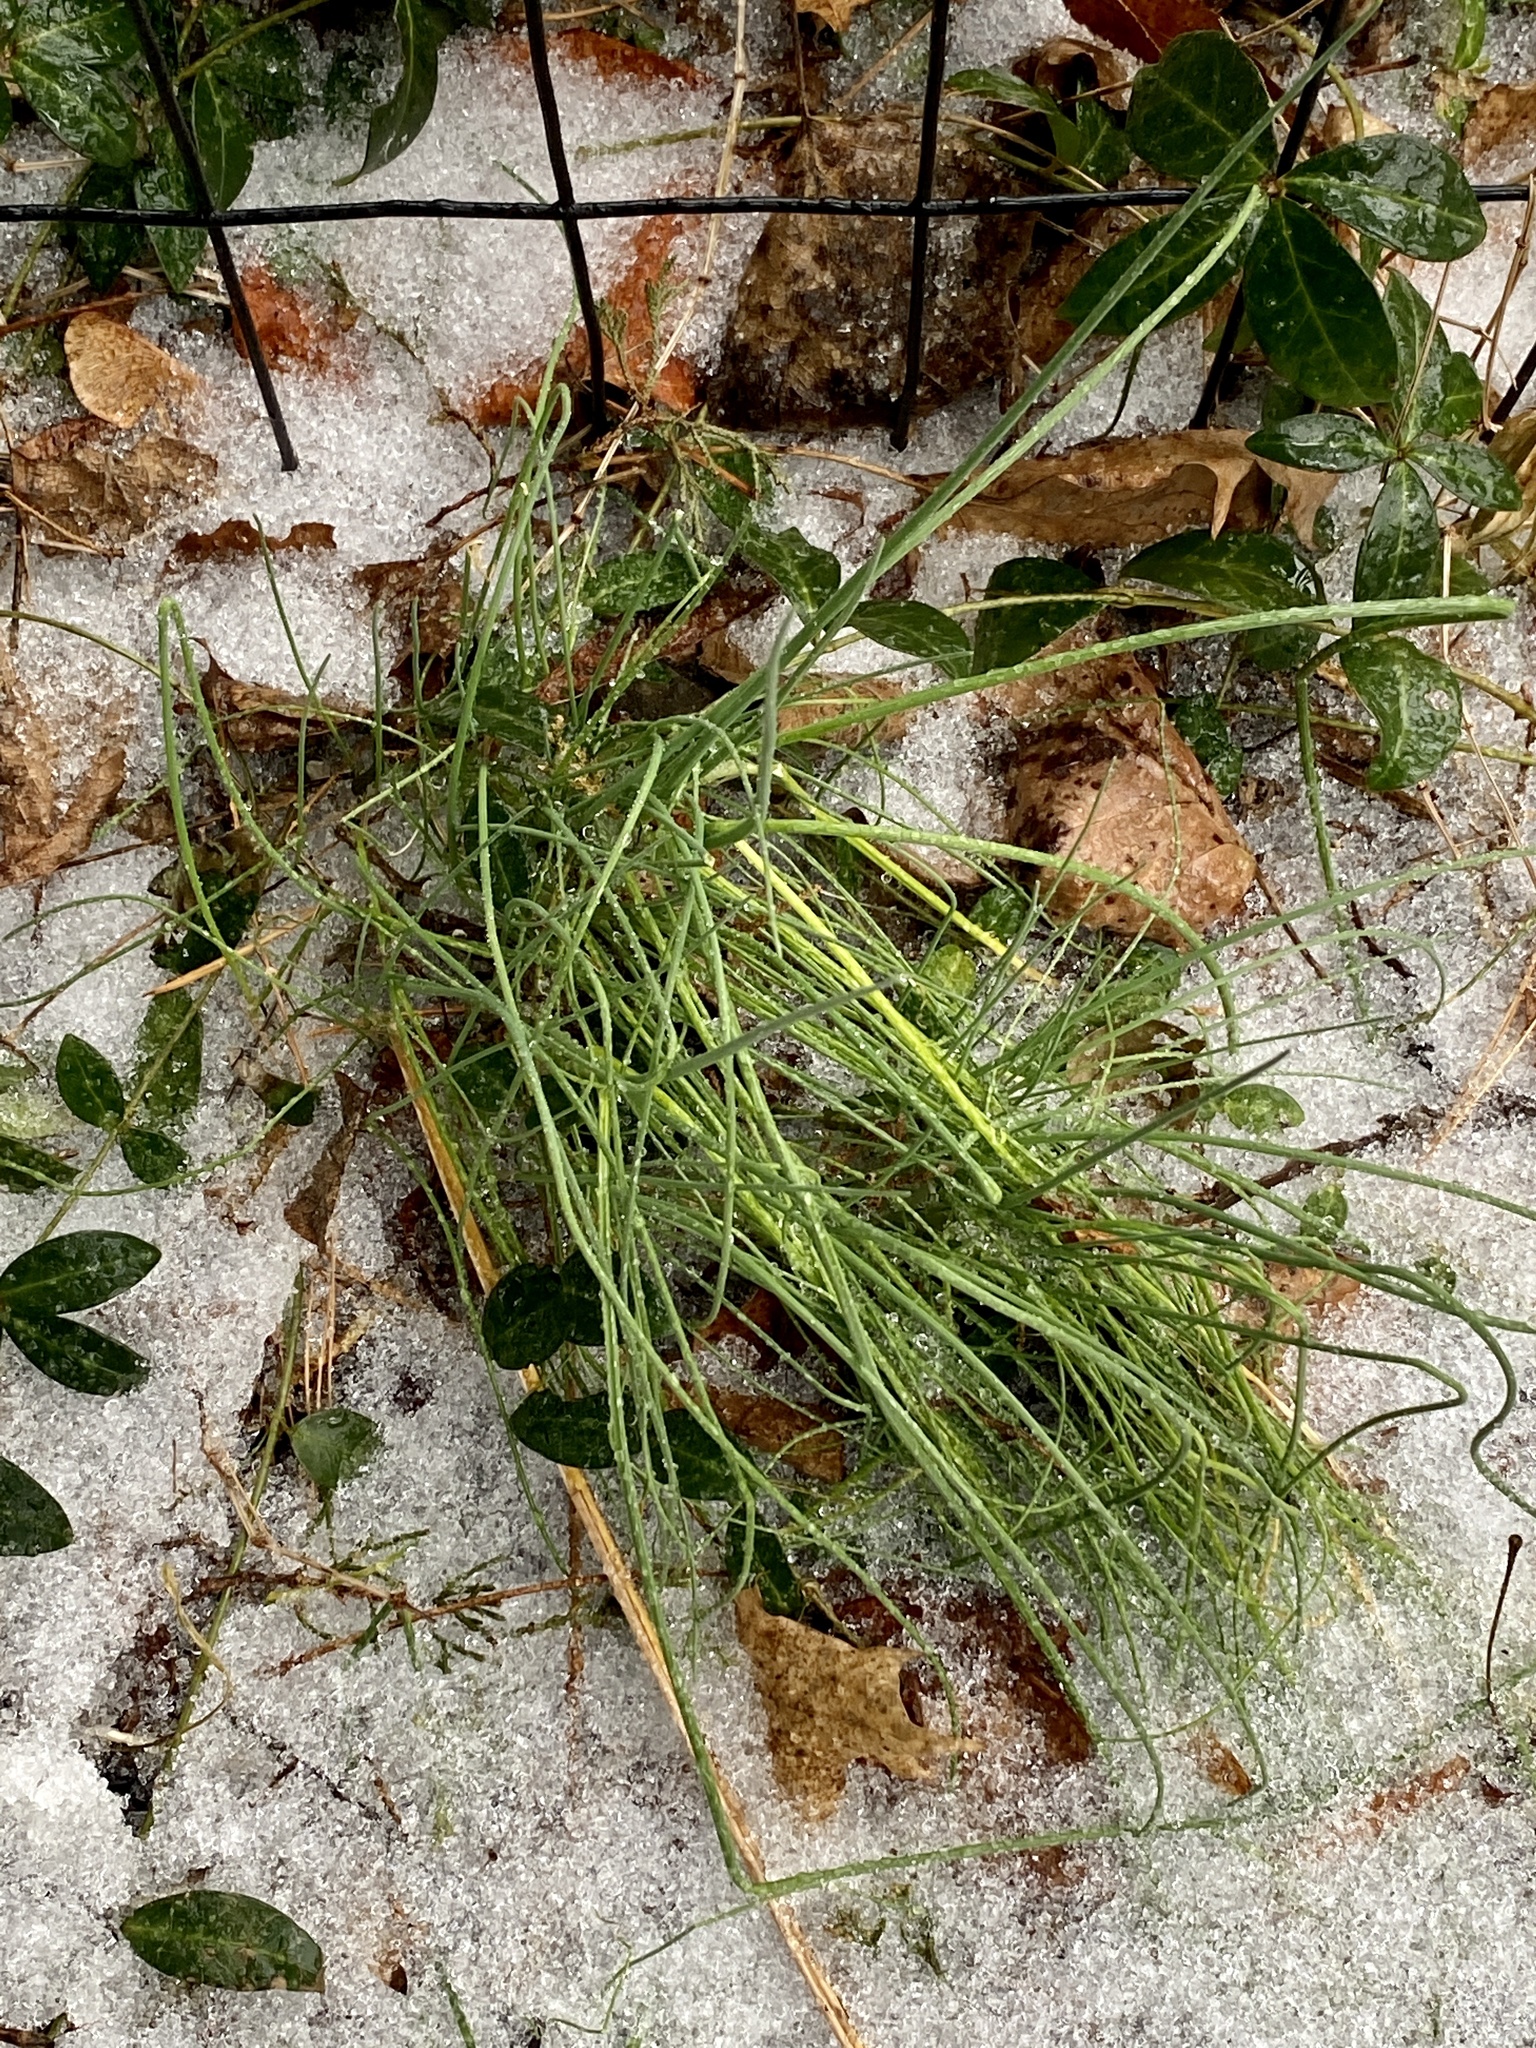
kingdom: Plantae
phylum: Tracheophyta
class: Liliopsida
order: Asparagales
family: Amaryllidaceae
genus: Allium
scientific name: Allium vineale
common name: Crow garlic
